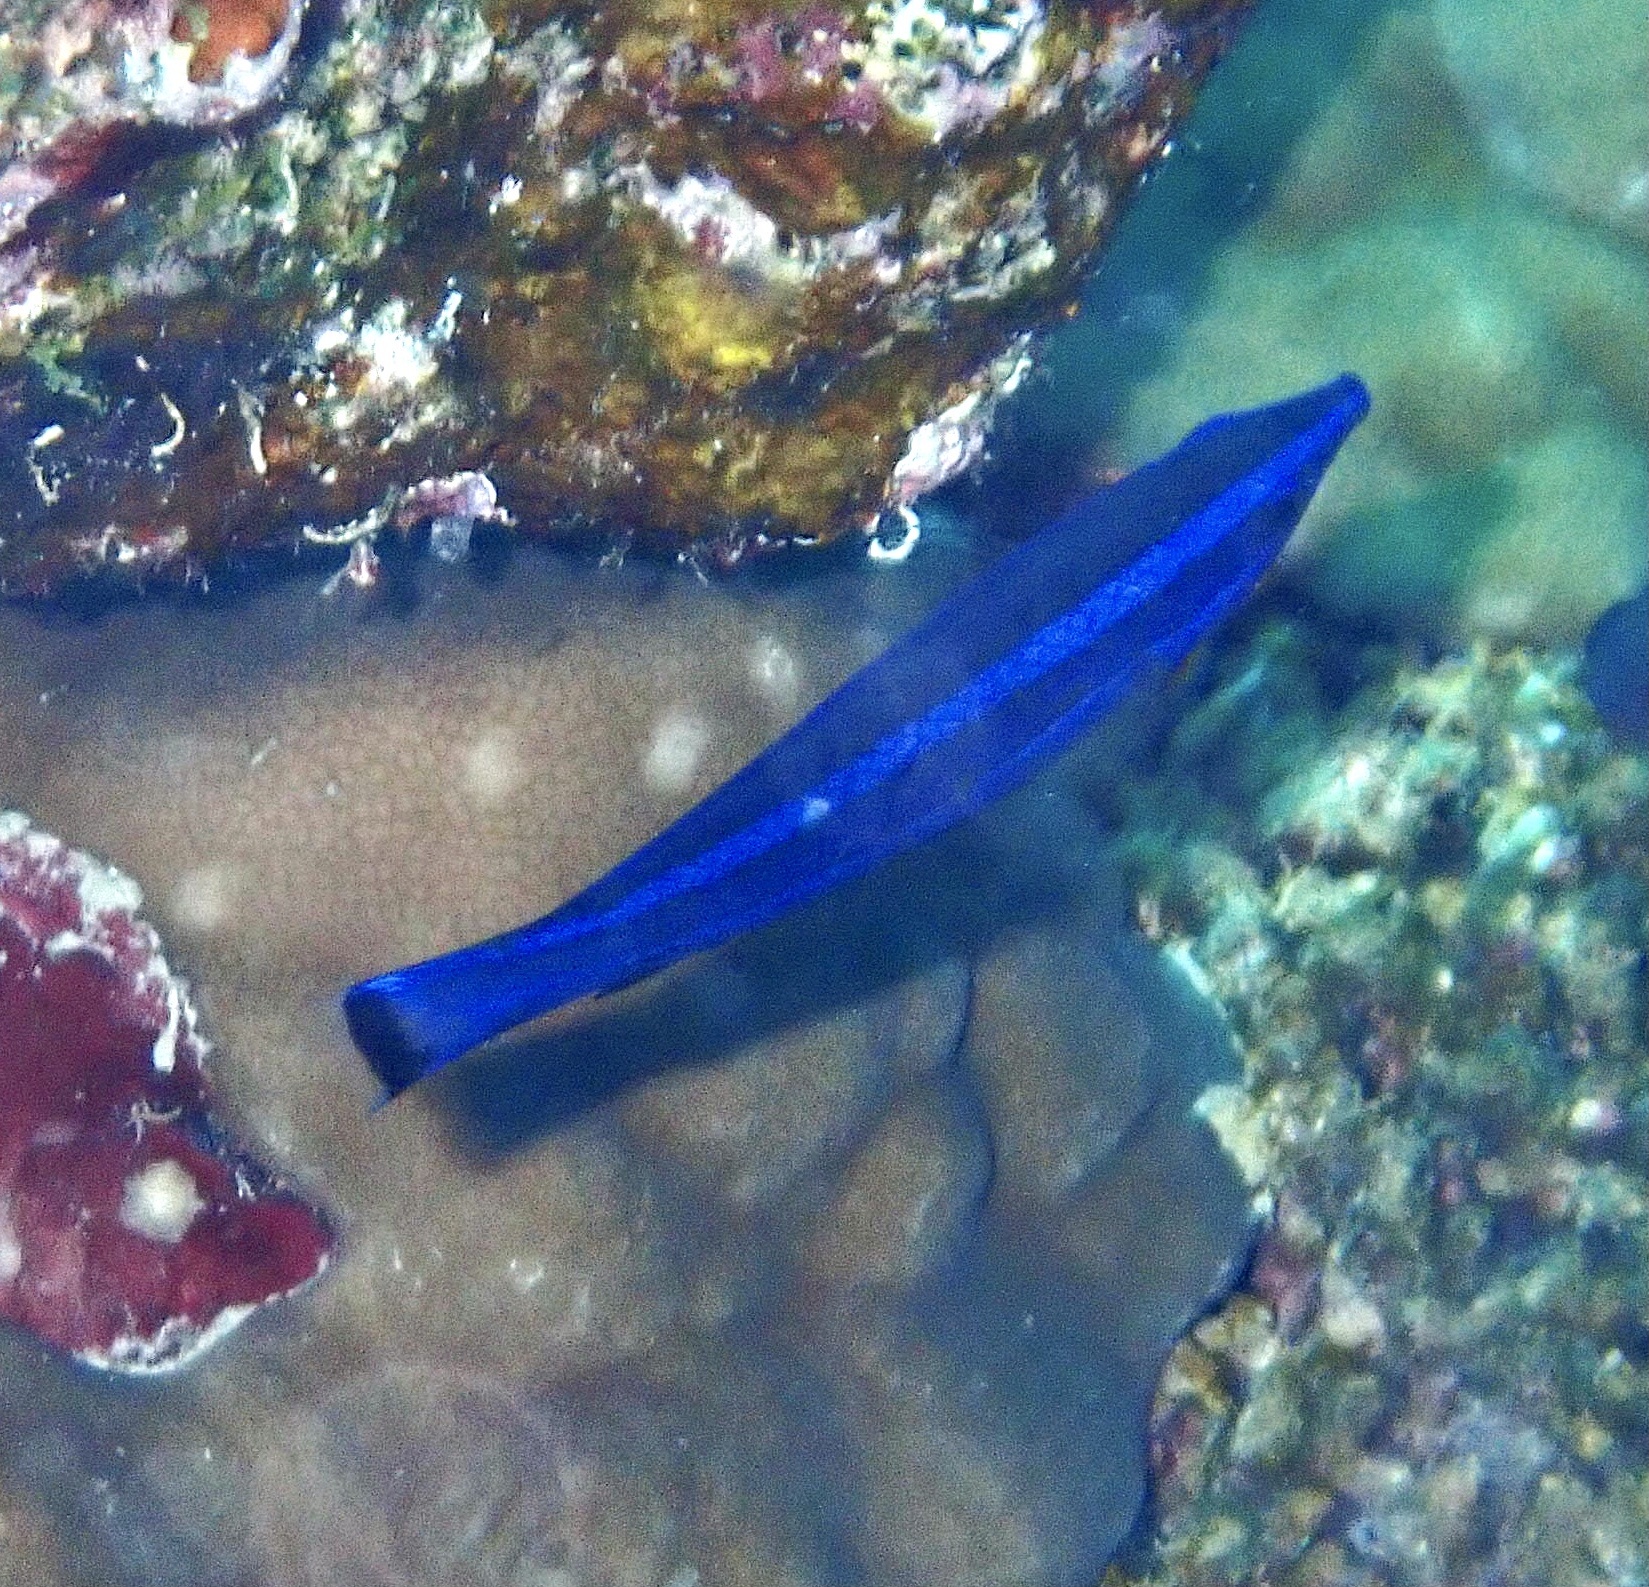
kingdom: Animalia
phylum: Chordata
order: Perciformes
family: Labridae
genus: Larabicus
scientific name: Larabicus quadrilineatus
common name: Fourline wrasse
